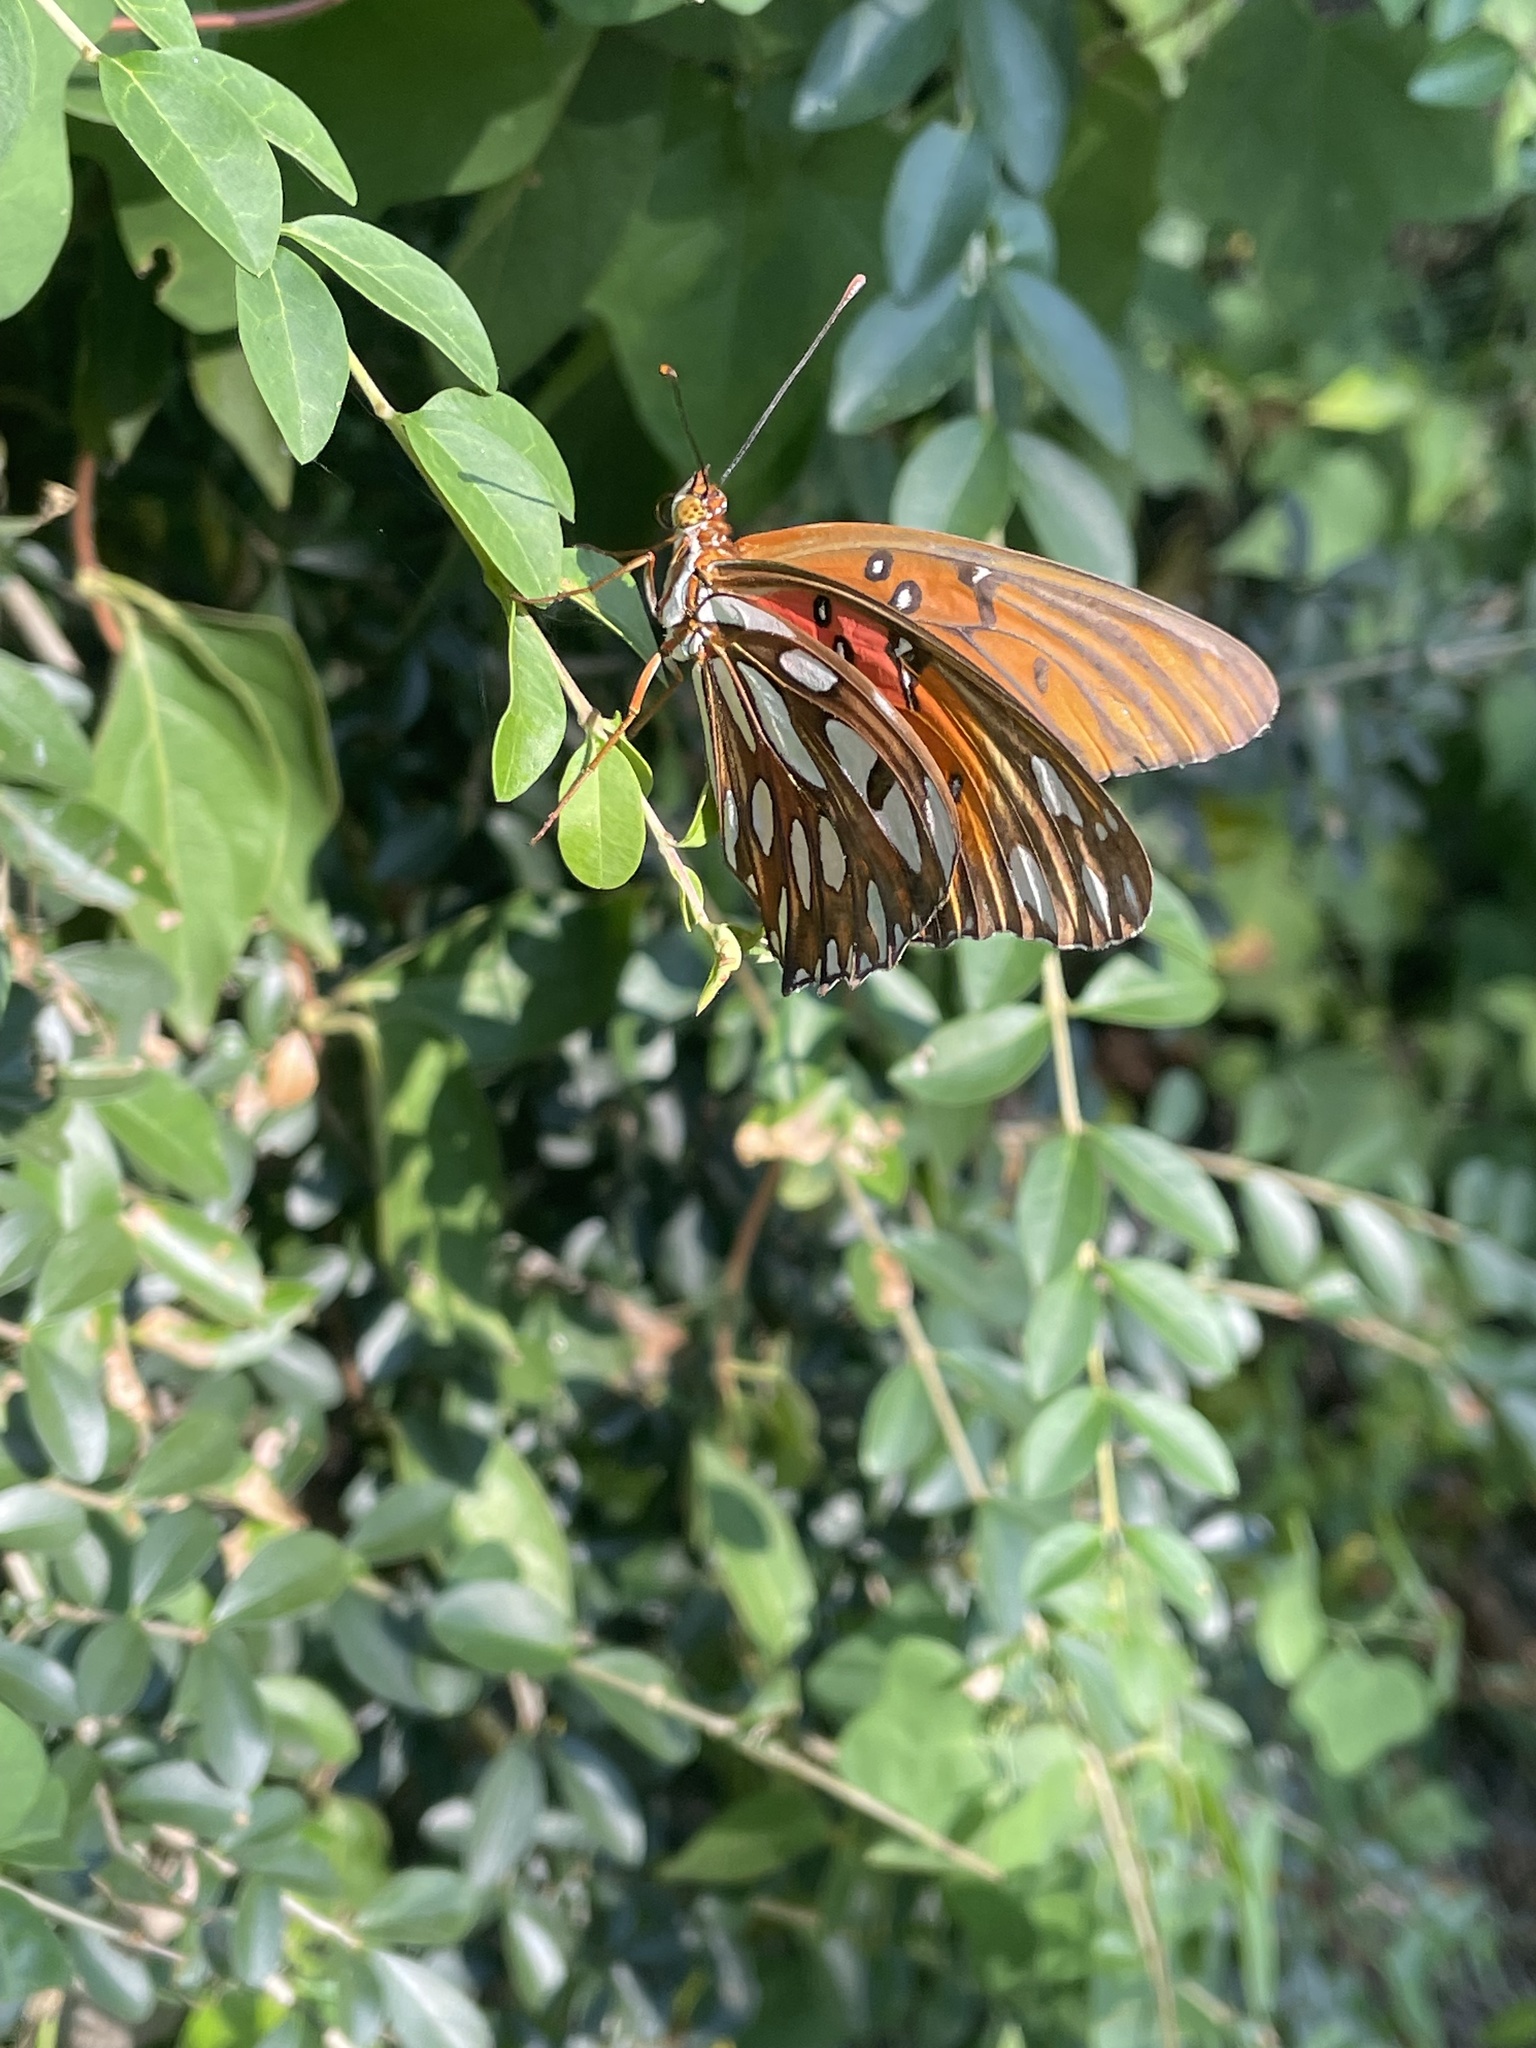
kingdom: Animalia
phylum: Arthropoda
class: Insecta
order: Lepidoptera
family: Nymphalidae
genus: Dione
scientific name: Dione vanillae
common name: Gulf fritillary
